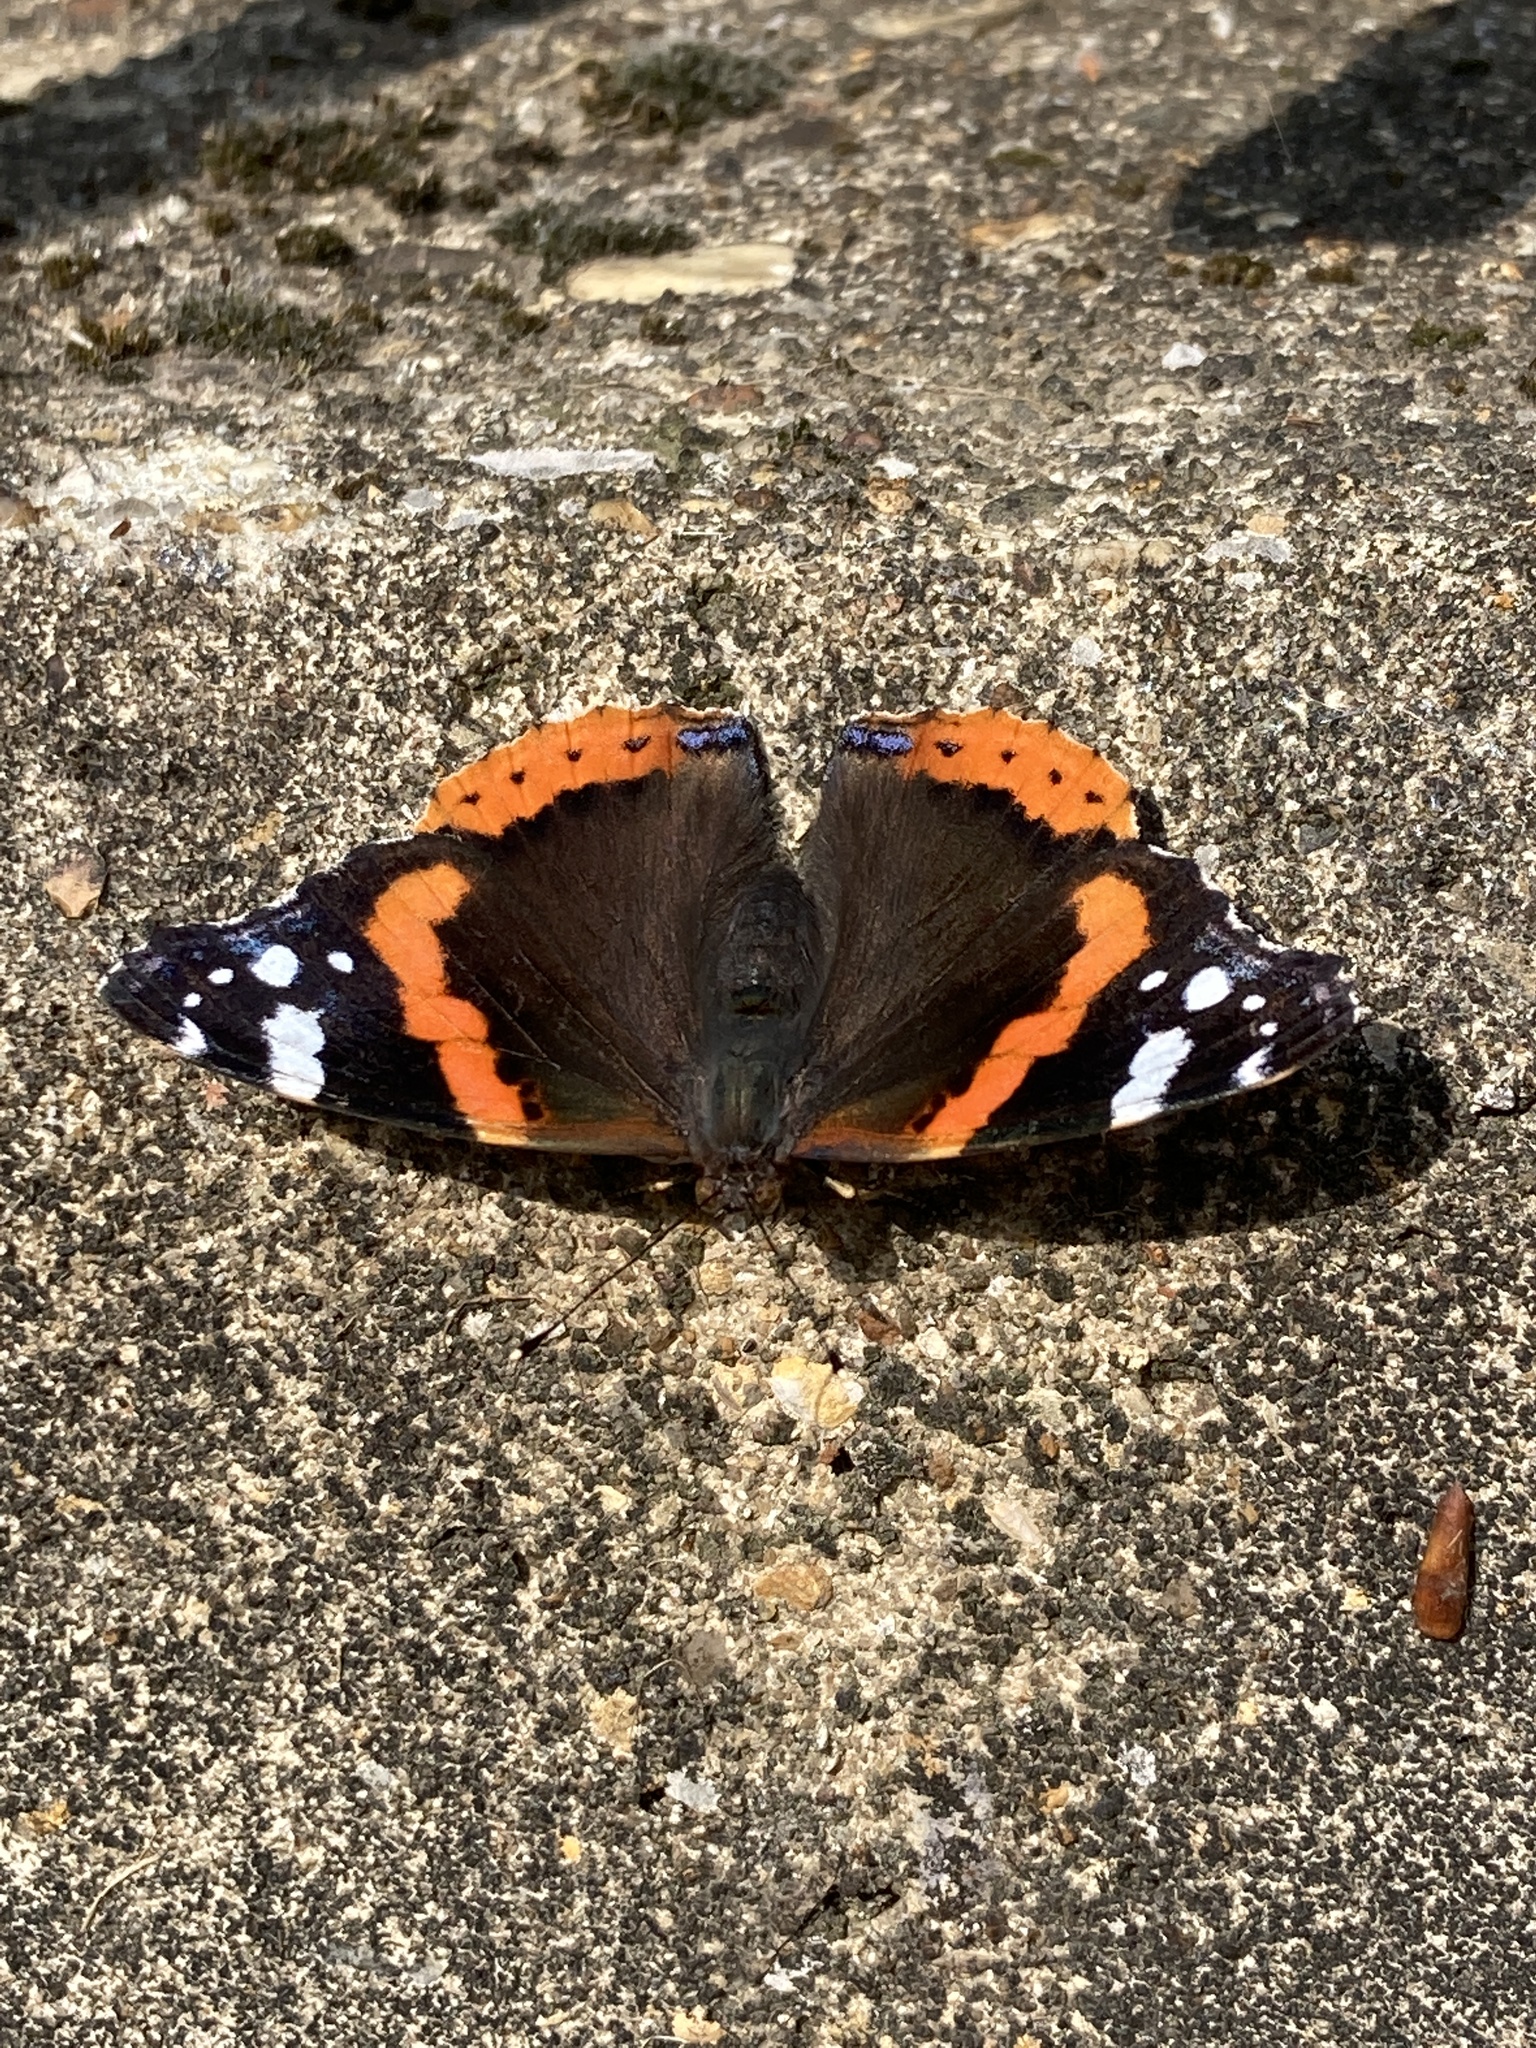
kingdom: Animalia
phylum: Arthropoda
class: Insecta
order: Lepidoptera
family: Nymphalidae
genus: Vanessa
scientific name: Vanessa atalanta
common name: Red admiral
